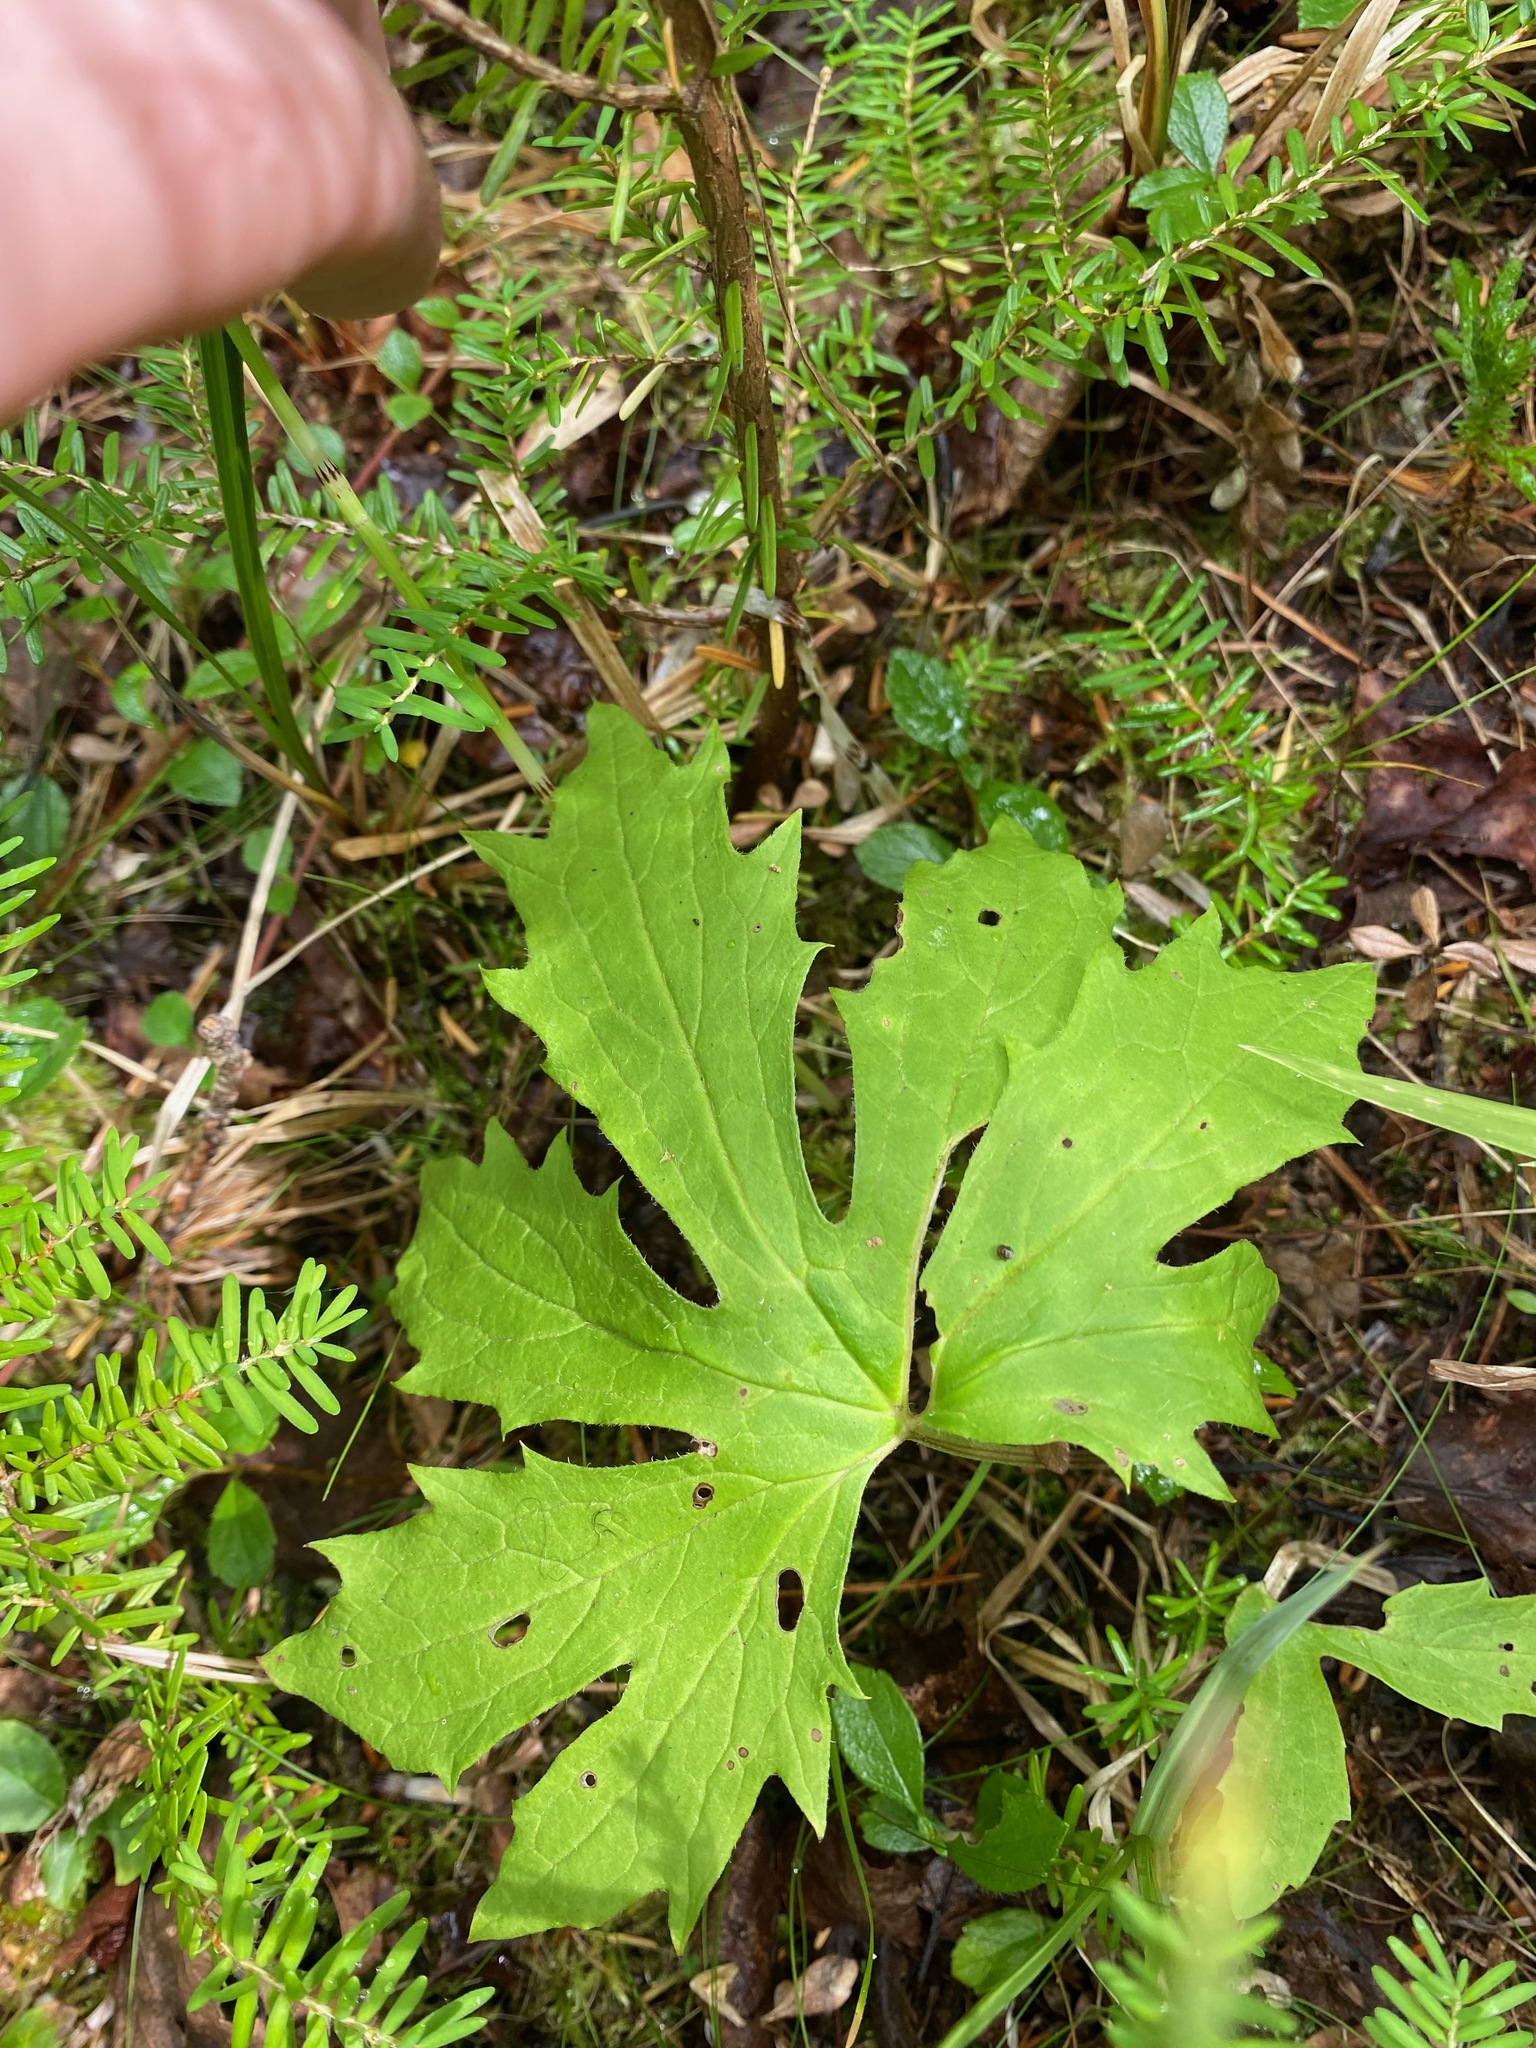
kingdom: Plantae
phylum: Tracheophyta
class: Magnoliopsida
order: Asterales
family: Asteraceae
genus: Petasites
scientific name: Petasites frigidus
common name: Arctic butterbur
